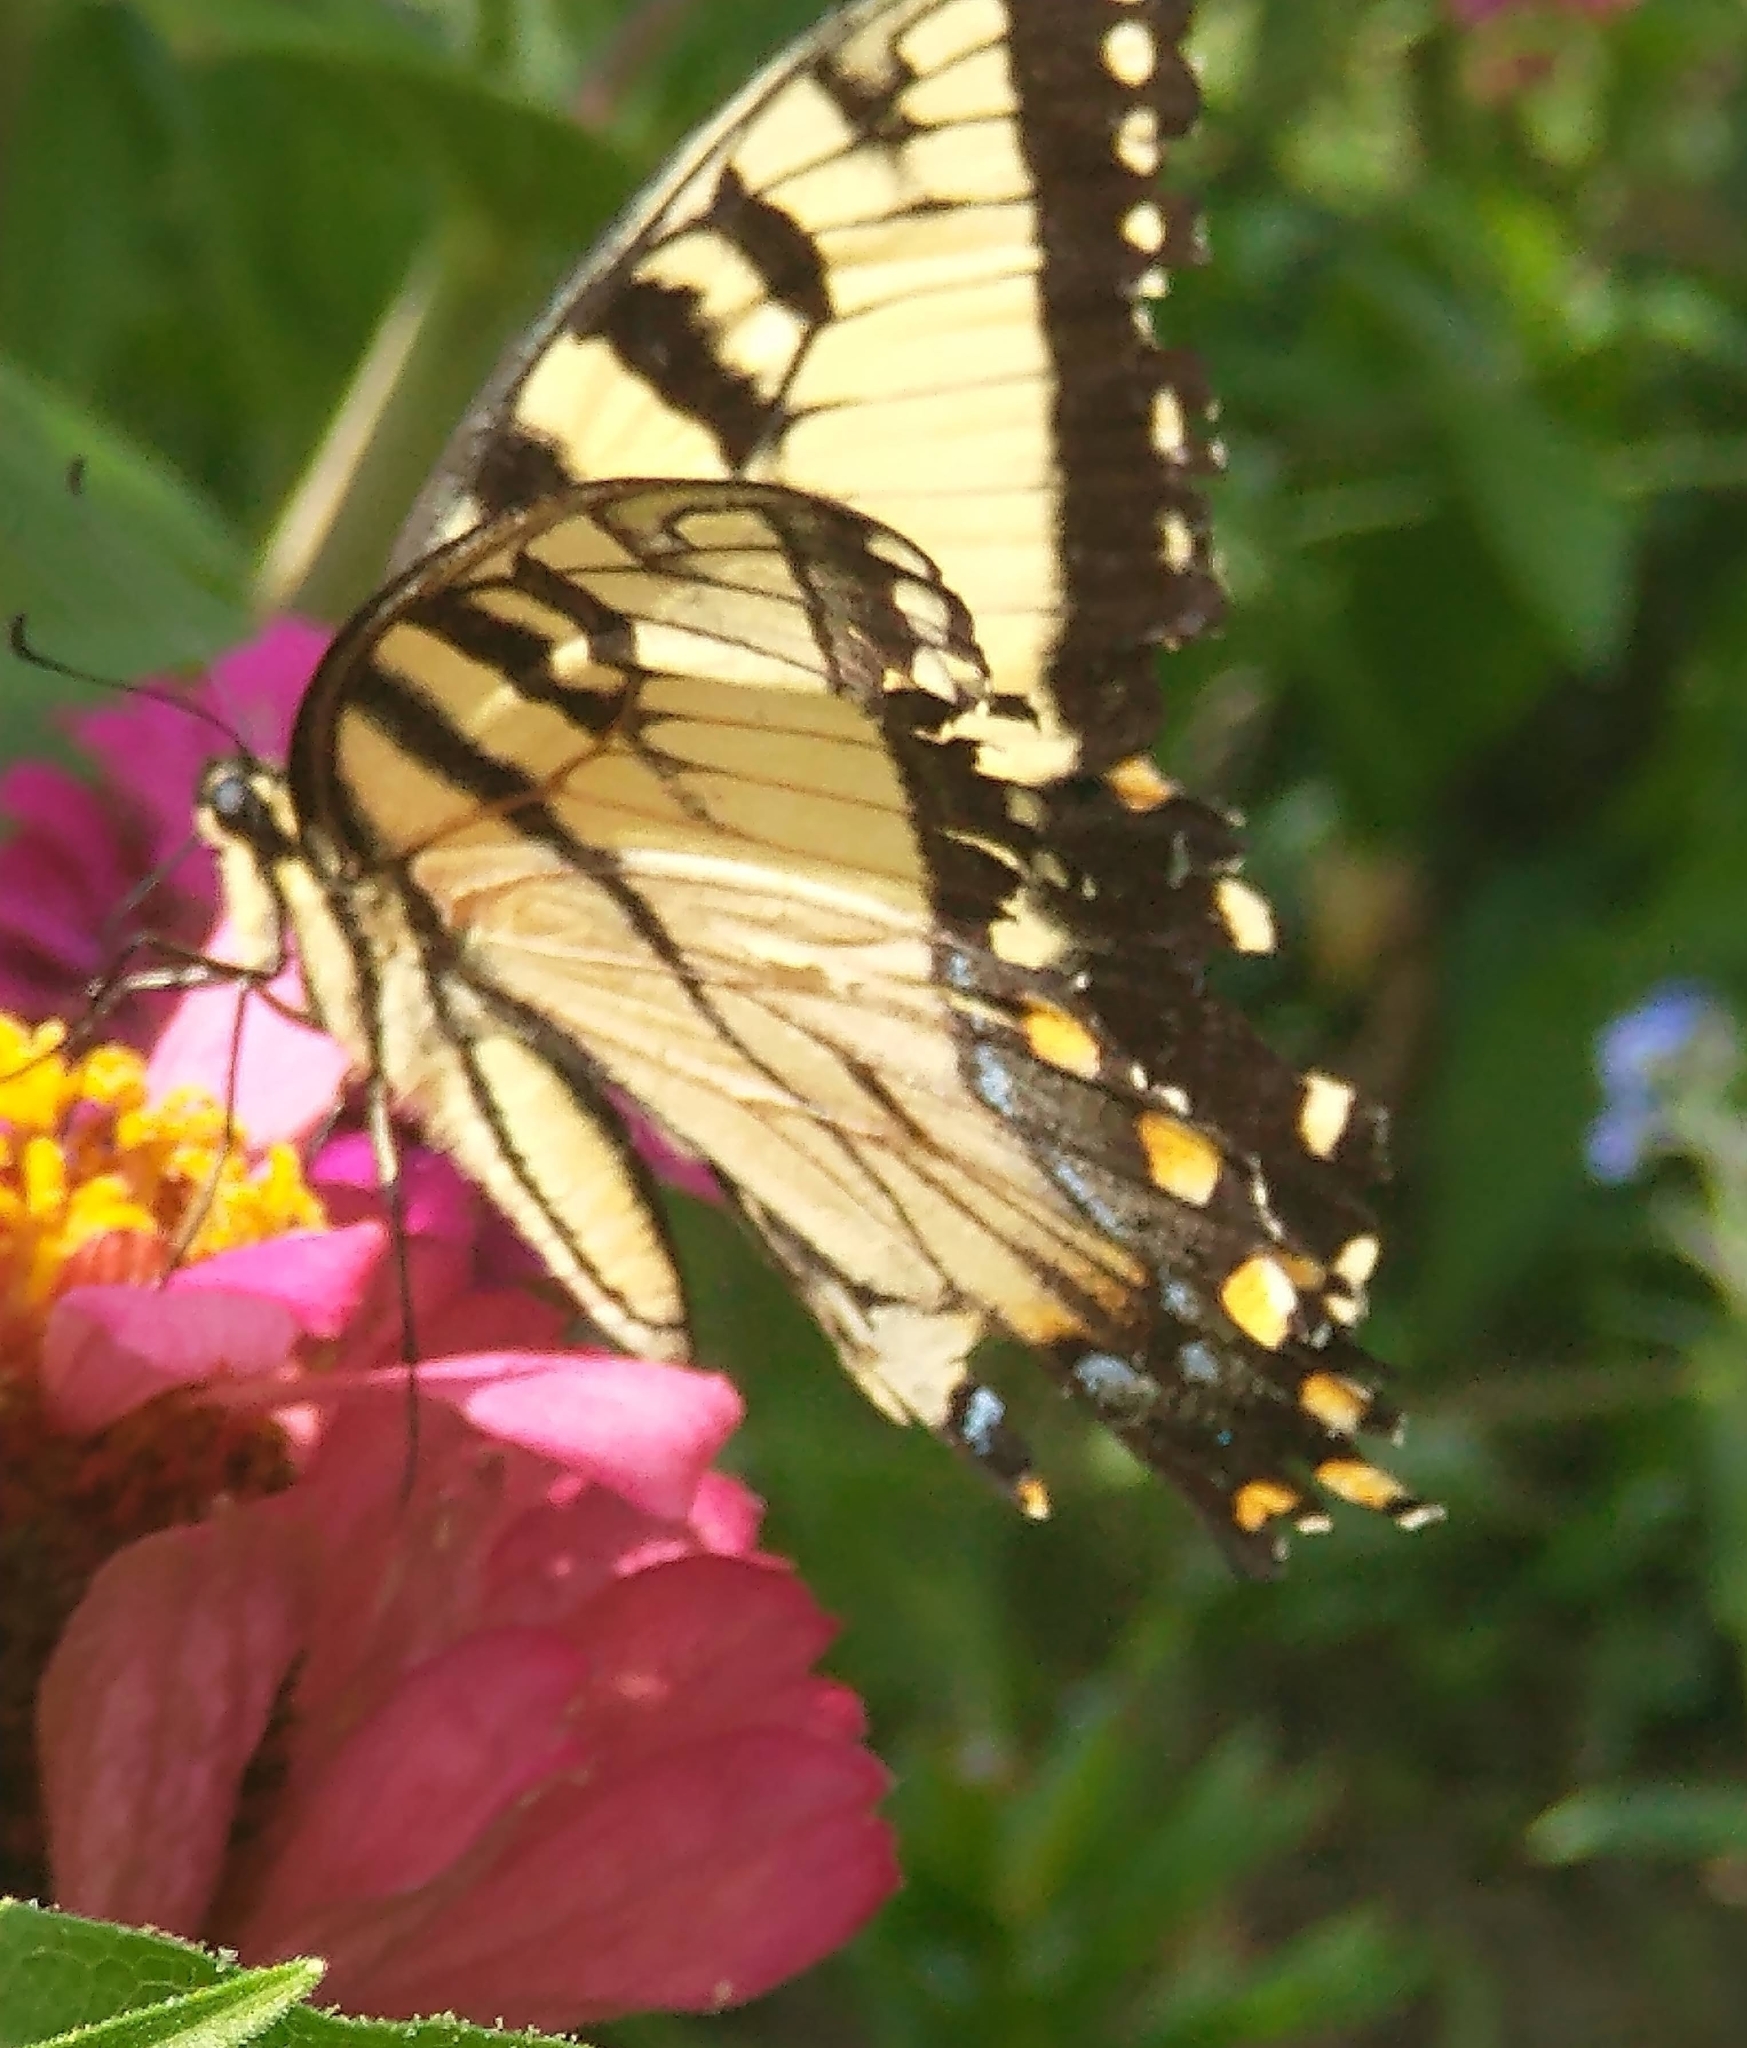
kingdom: Animalia
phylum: Arthropoda
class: Insecta
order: Lepidoptera
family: Papilionidae
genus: Papilio
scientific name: Papilio glaucus
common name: Tiger swallowtail
